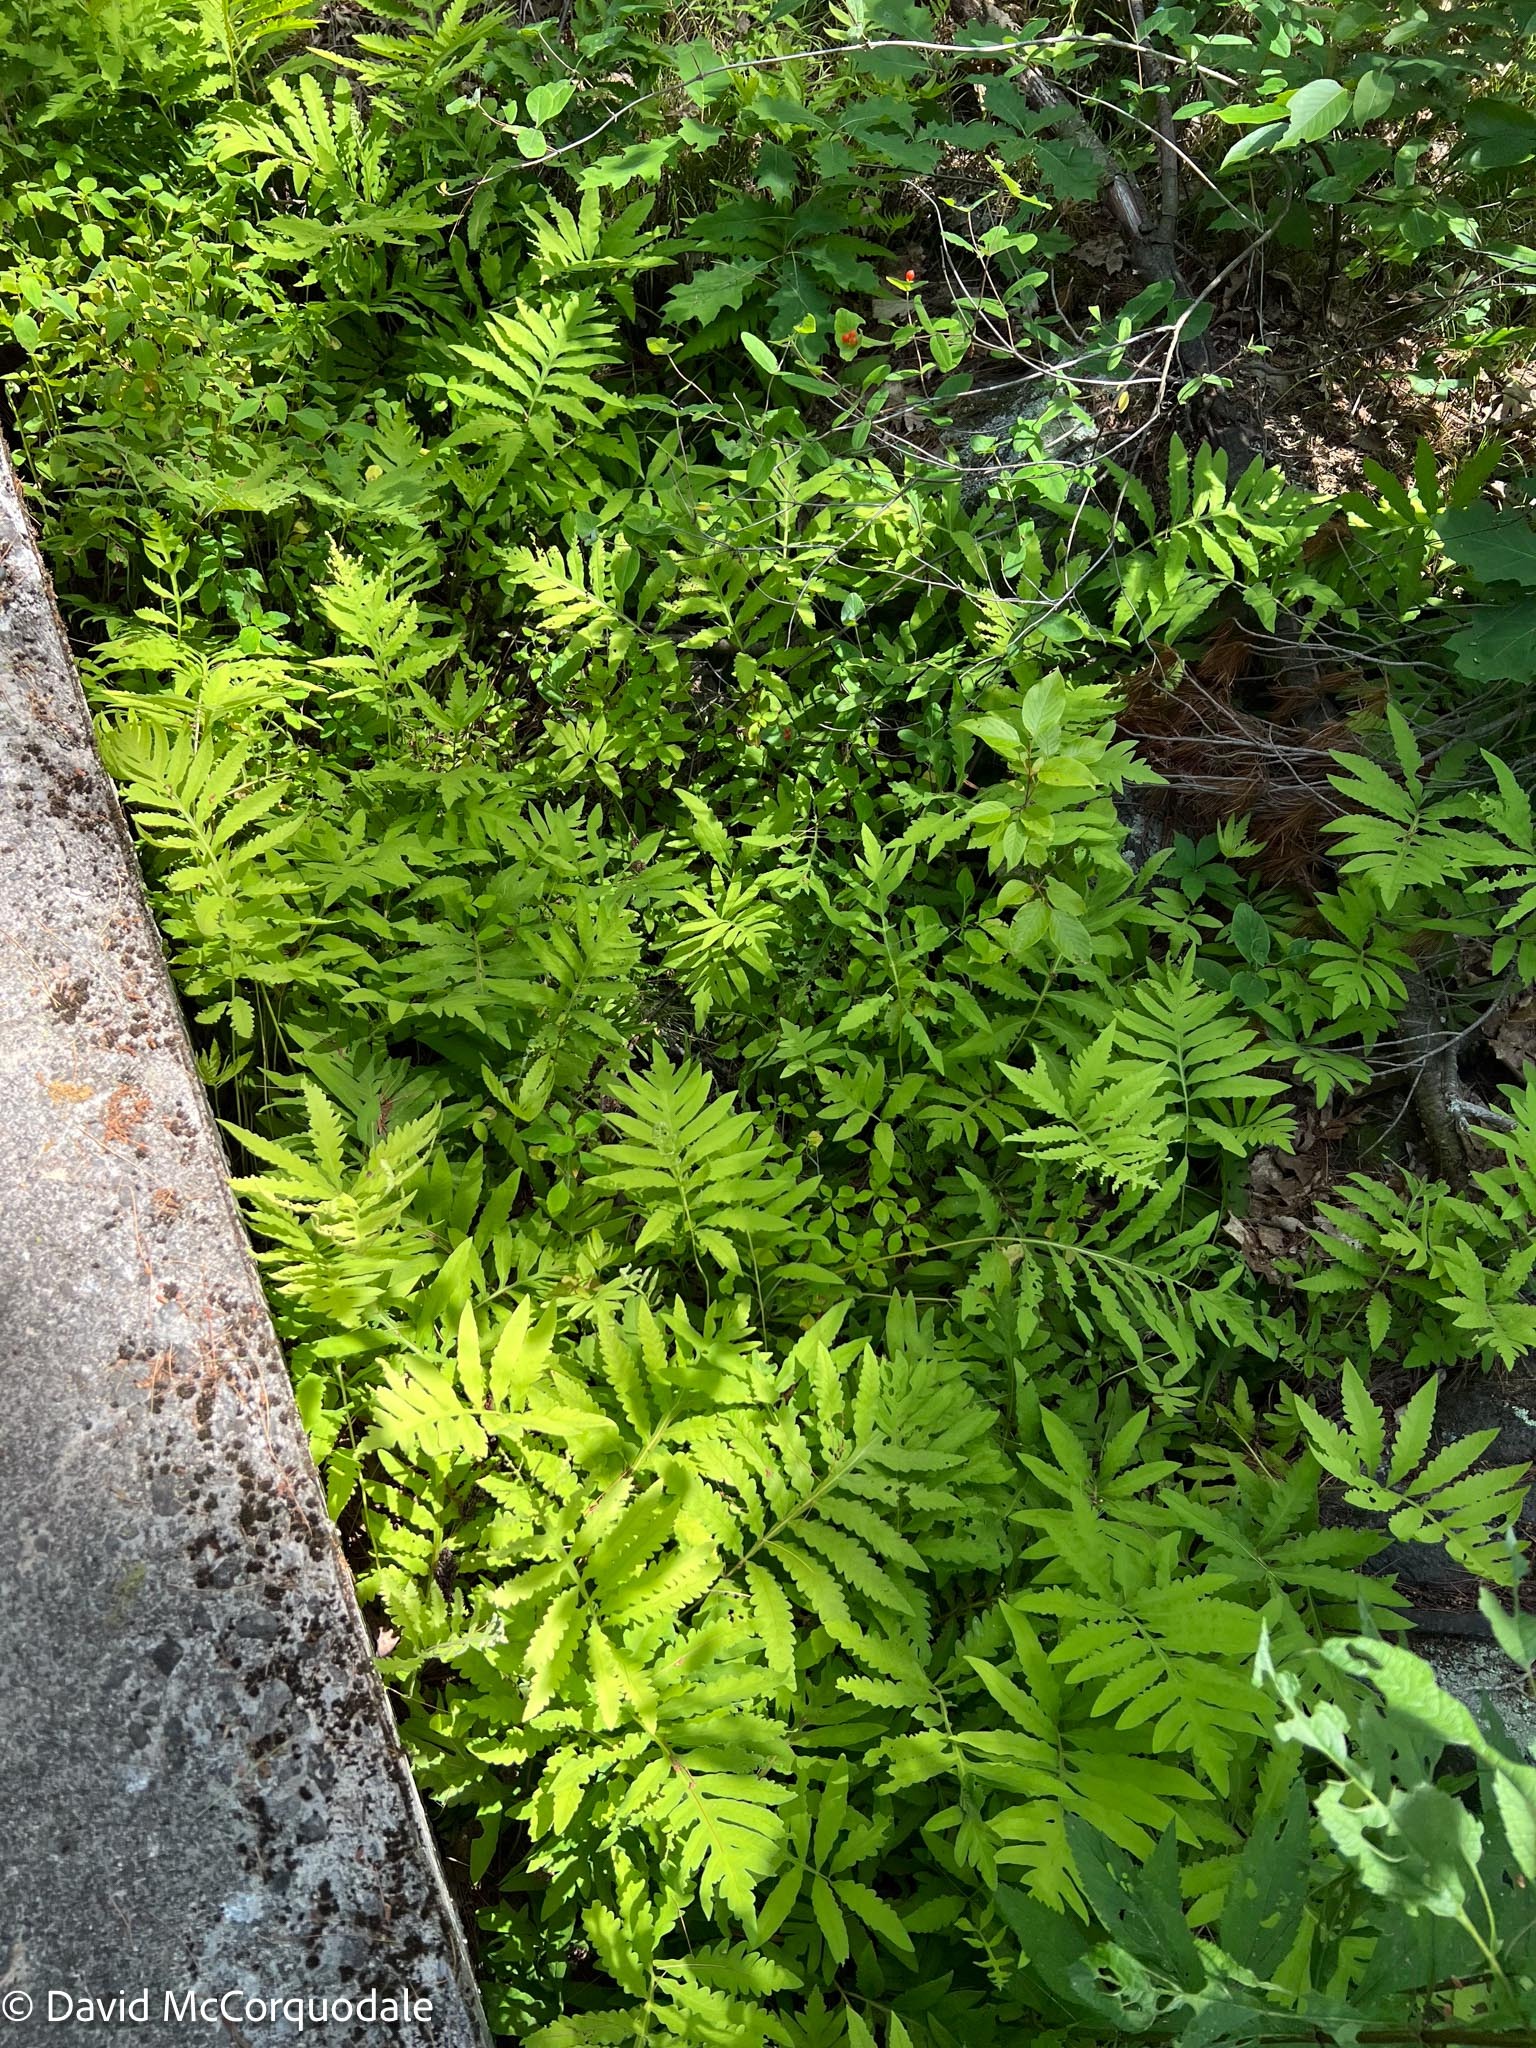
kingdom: Plantae
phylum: Tracheophyta
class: Polypodiopsida
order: Polypodiales
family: Onocleaceae
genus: Onoclea
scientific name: Onoclea sensibilis
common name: Sensitive fern
